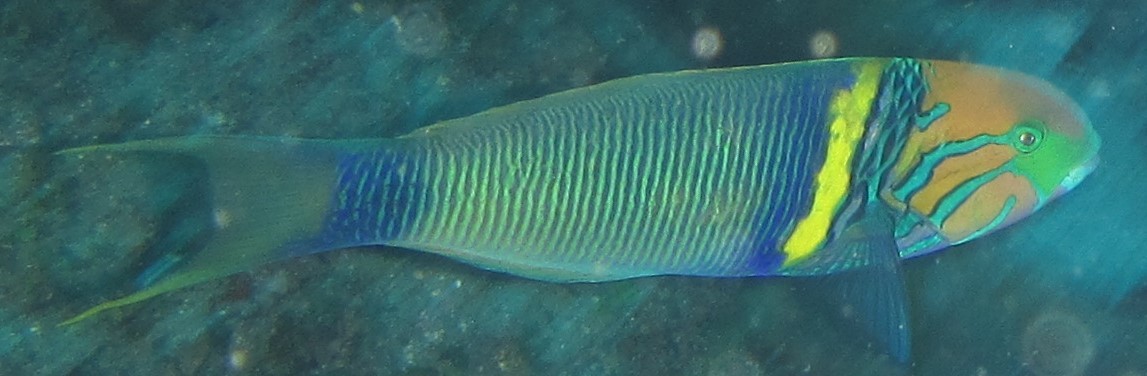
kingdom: Animalia
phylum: Chordata
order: Perciformes
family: Labridae
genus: Thalassoma
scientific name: Thalassoma hebraicum
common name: Goldbar wrasse
